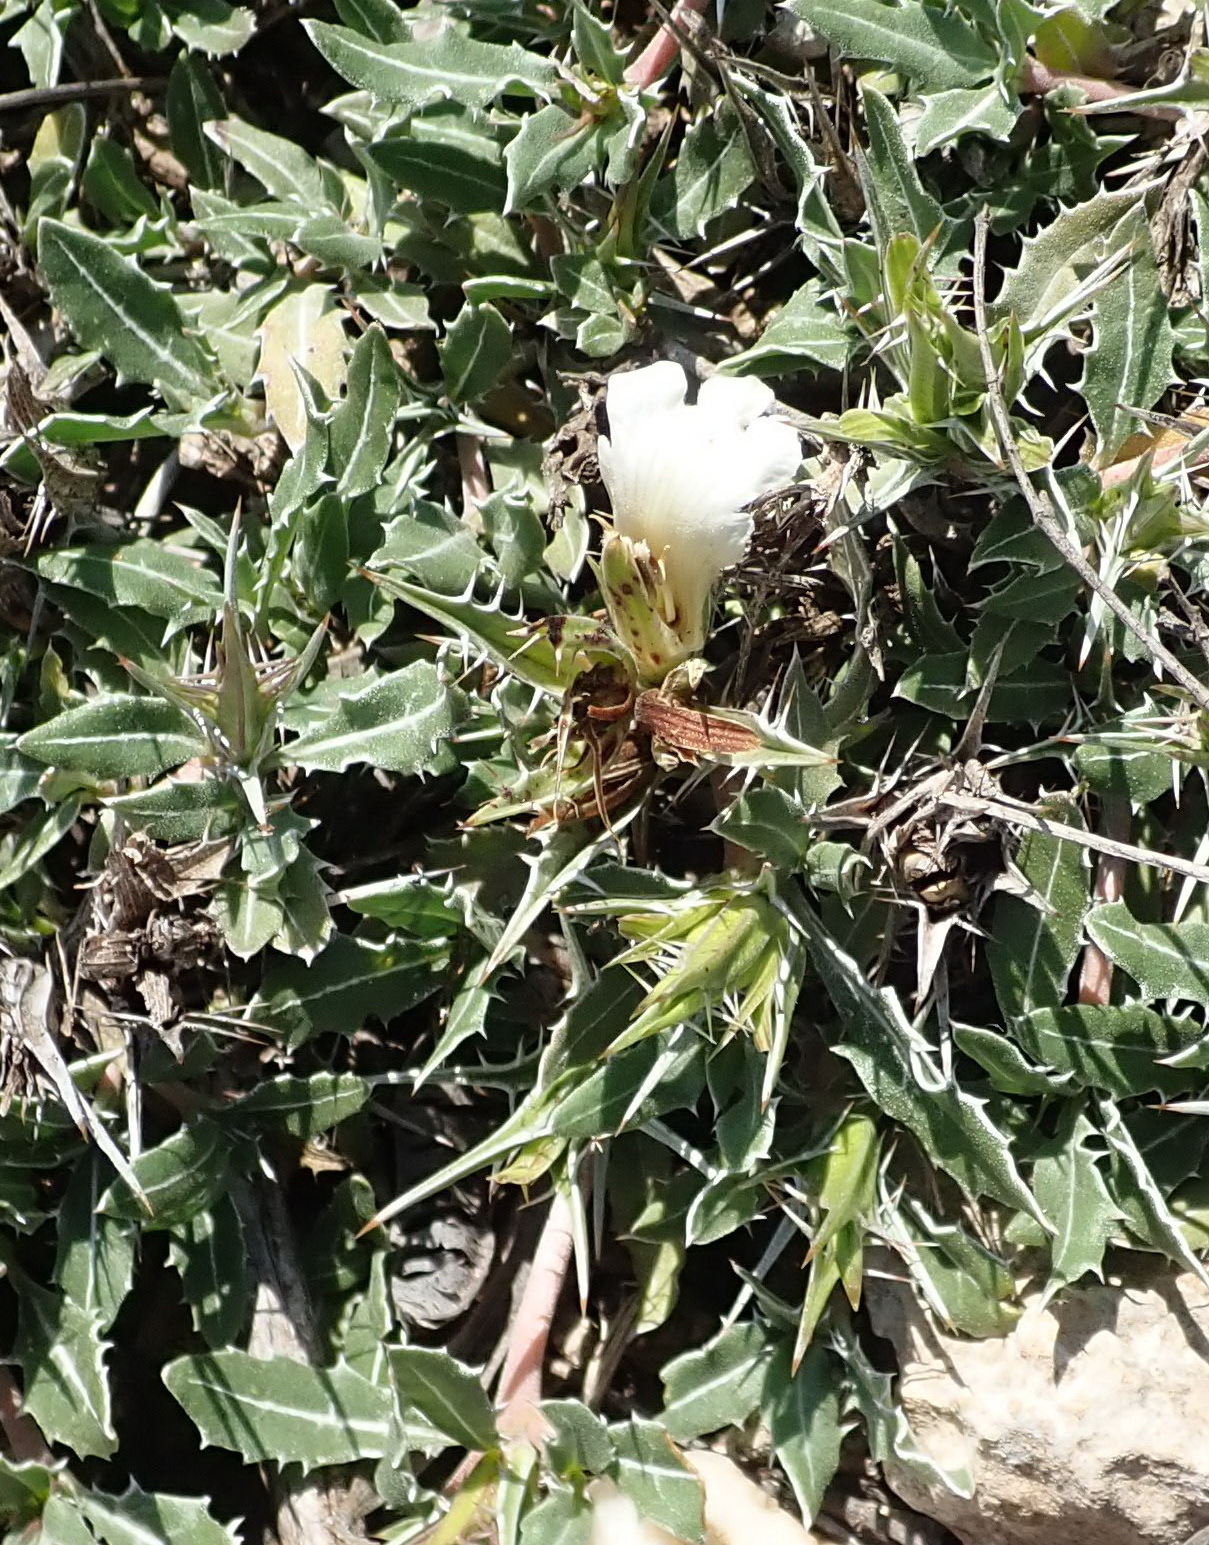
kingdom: Plantae
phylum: Tracheophyta
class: Magnoliopsida
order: Lamiales
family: Acanthaceae
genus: Blepharis
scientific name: Blepharis capensis
